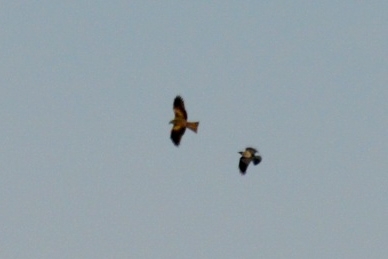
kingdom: Animalia
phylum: Chordata
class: Aves
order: Accipitriformes
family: Accipitridae
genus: Milvus
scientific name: Milvus migrans
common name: Black kite
